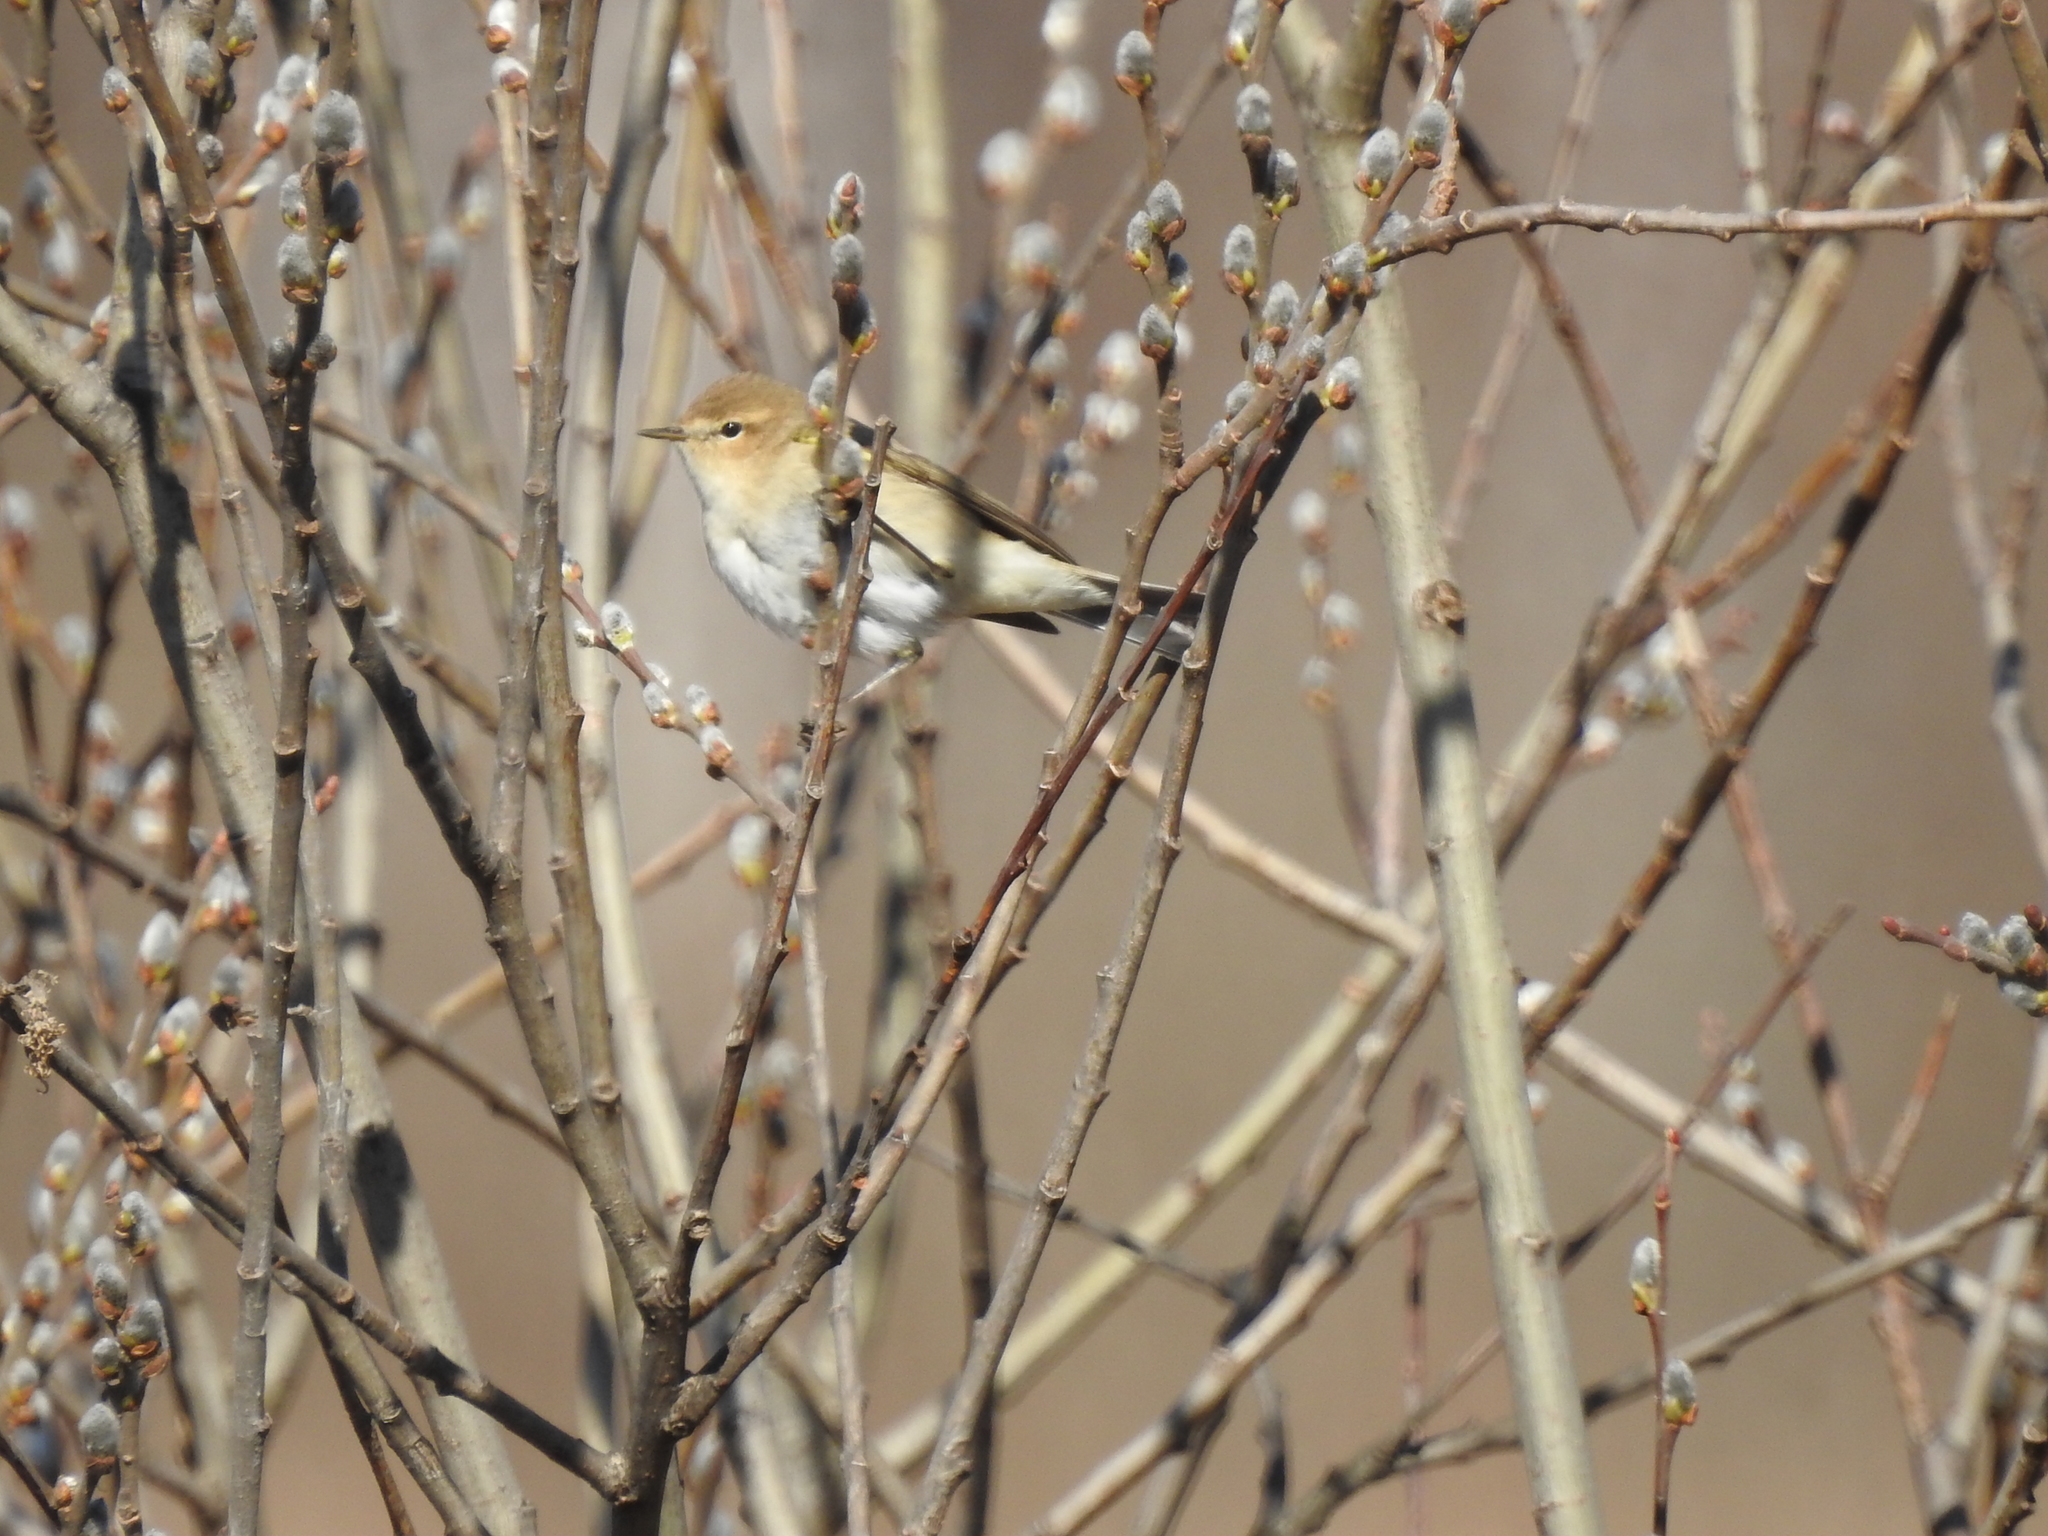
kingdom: Animalia
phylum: Chordata
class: Aves
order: Passeriformes
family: Phylloscopidae
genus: Phylloscopus
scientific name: Phylloscopus collybita
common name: Common chiffchaff
